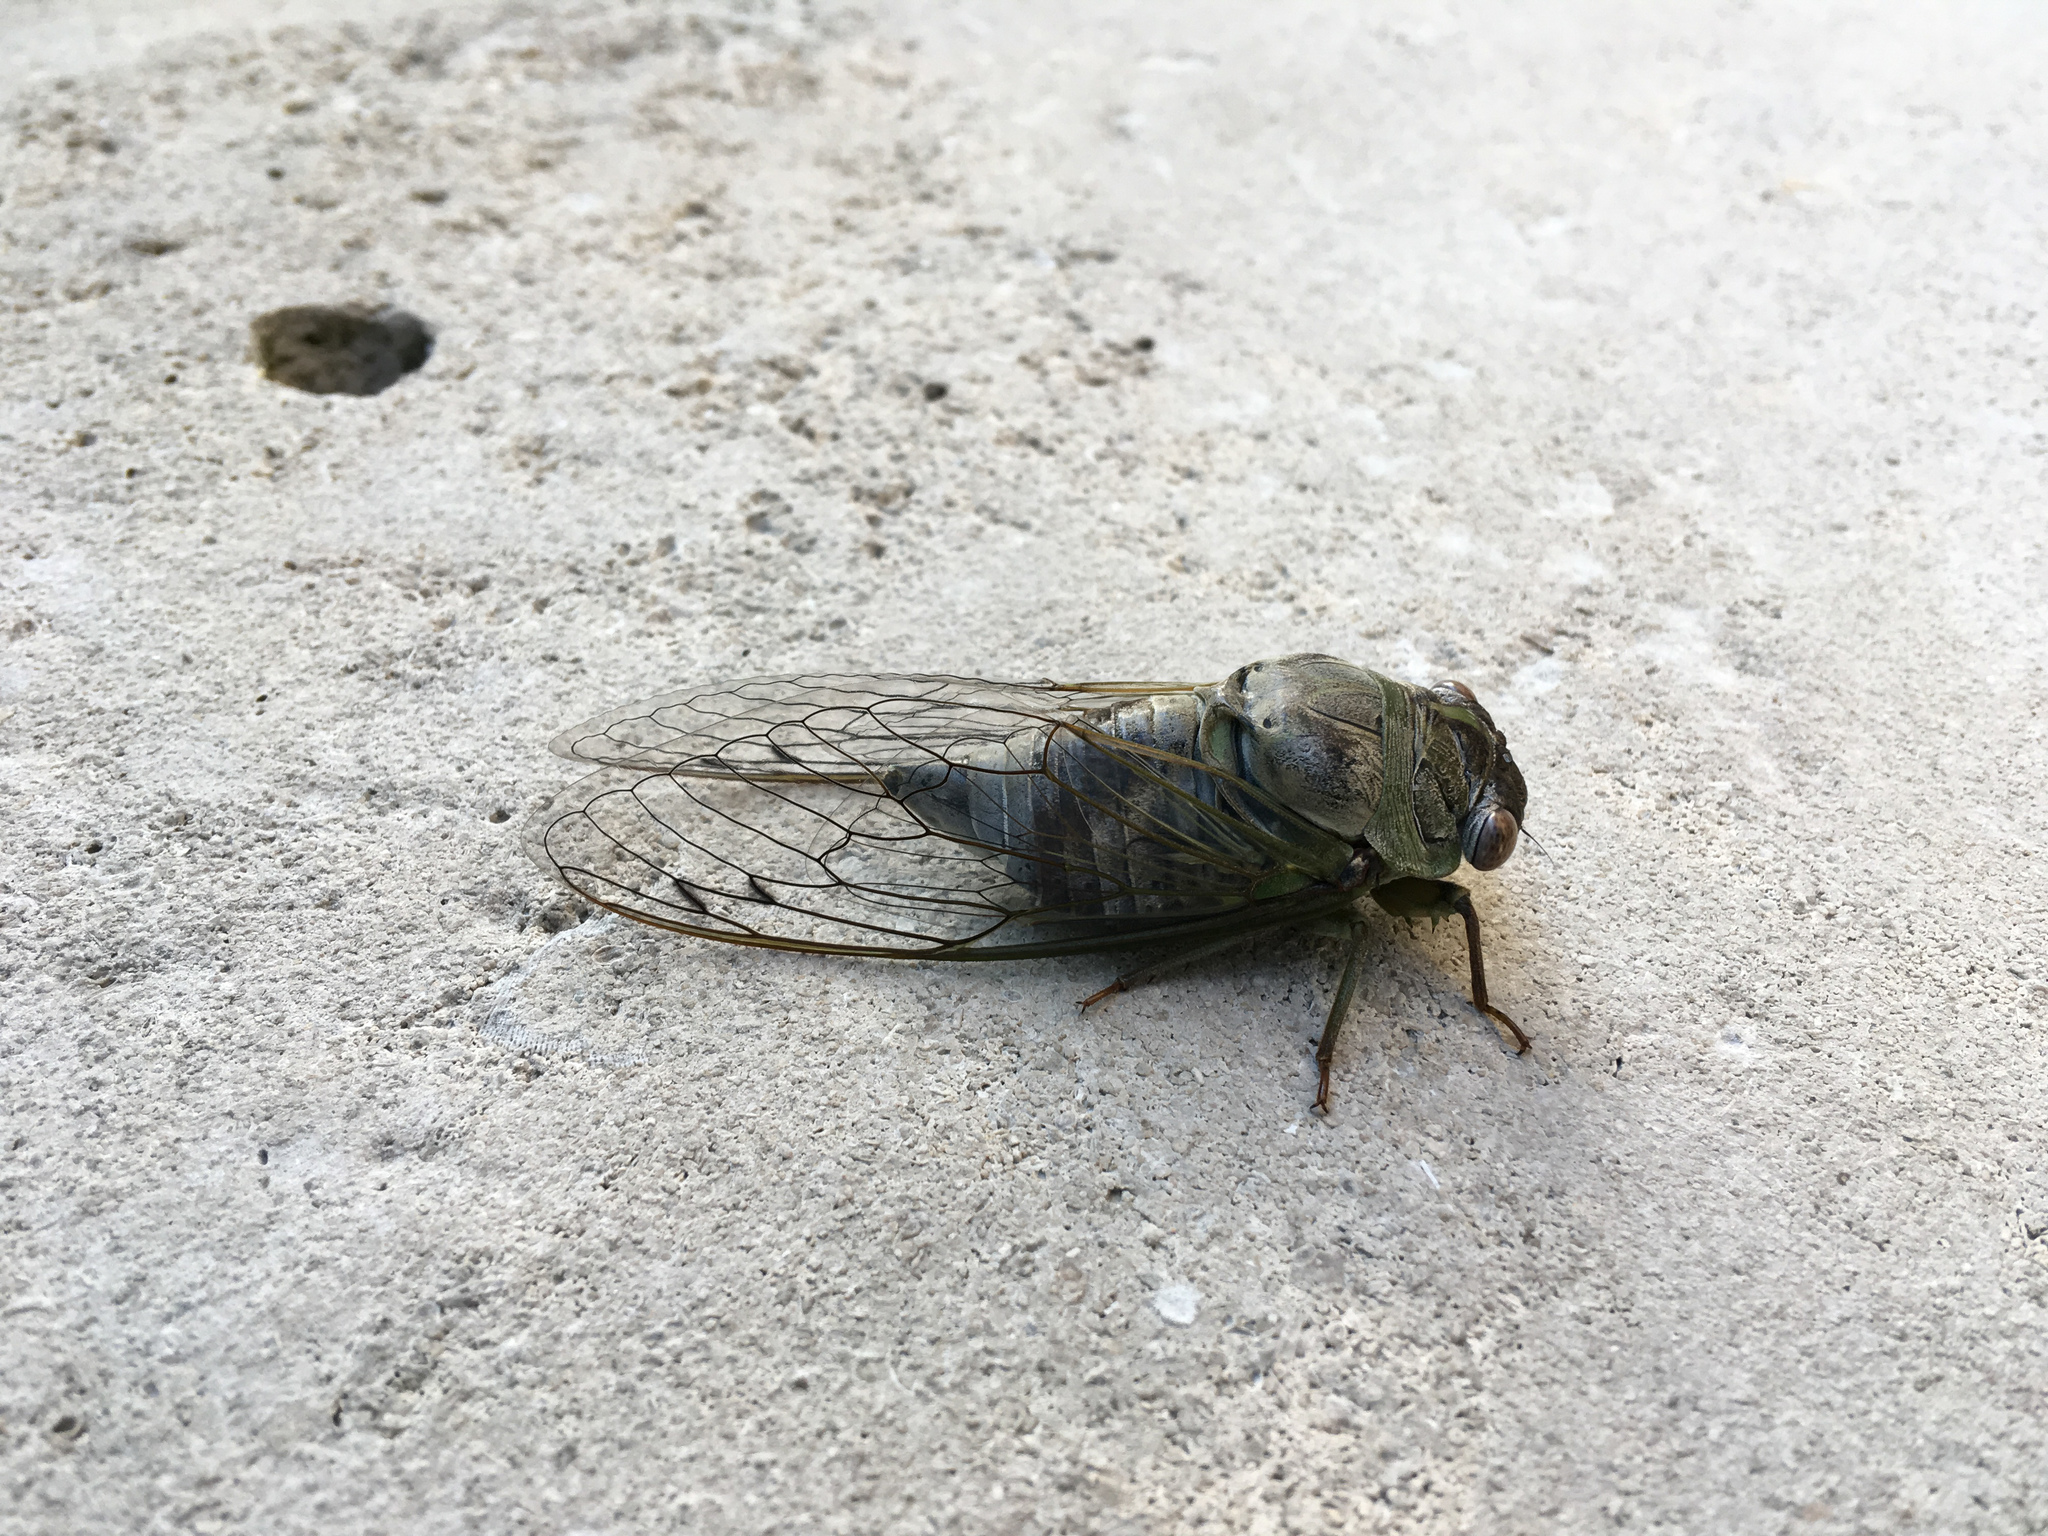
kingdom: Animalia
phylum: Arthropoda
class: Insecta
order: Hemiptera
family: Cicadidae
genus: Diceroprocta
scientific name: Diceroprocta grossa
